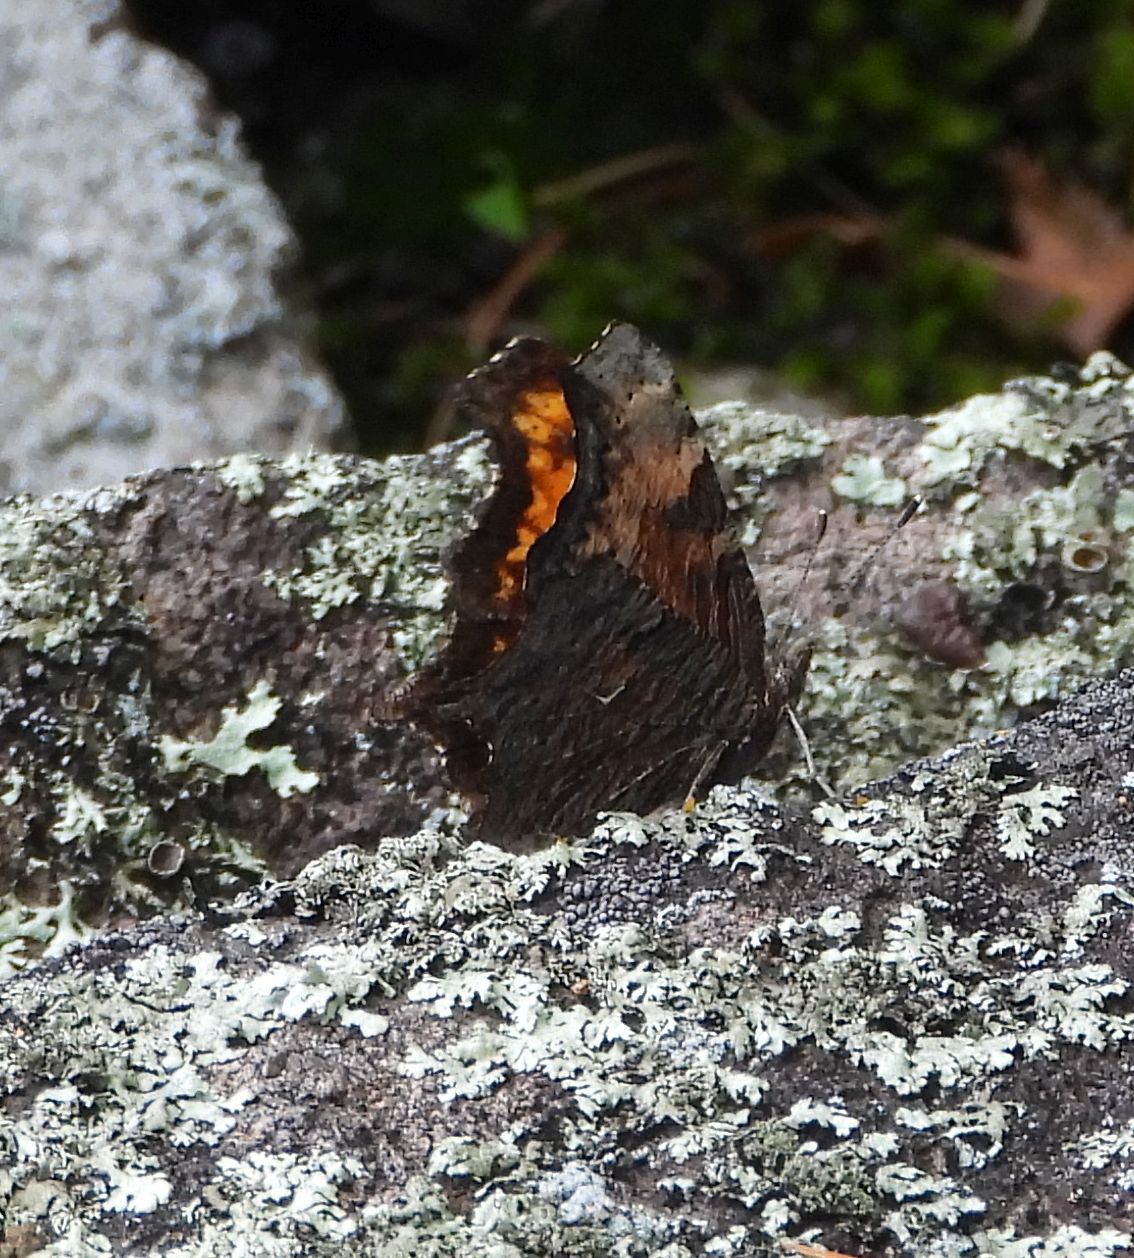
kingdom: Animalia
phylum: Arthropoda
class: Insecta
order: Lepidoptera
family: Nymphalidae
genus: Polygonia
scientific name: Polygonia progne
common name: Gray comma
